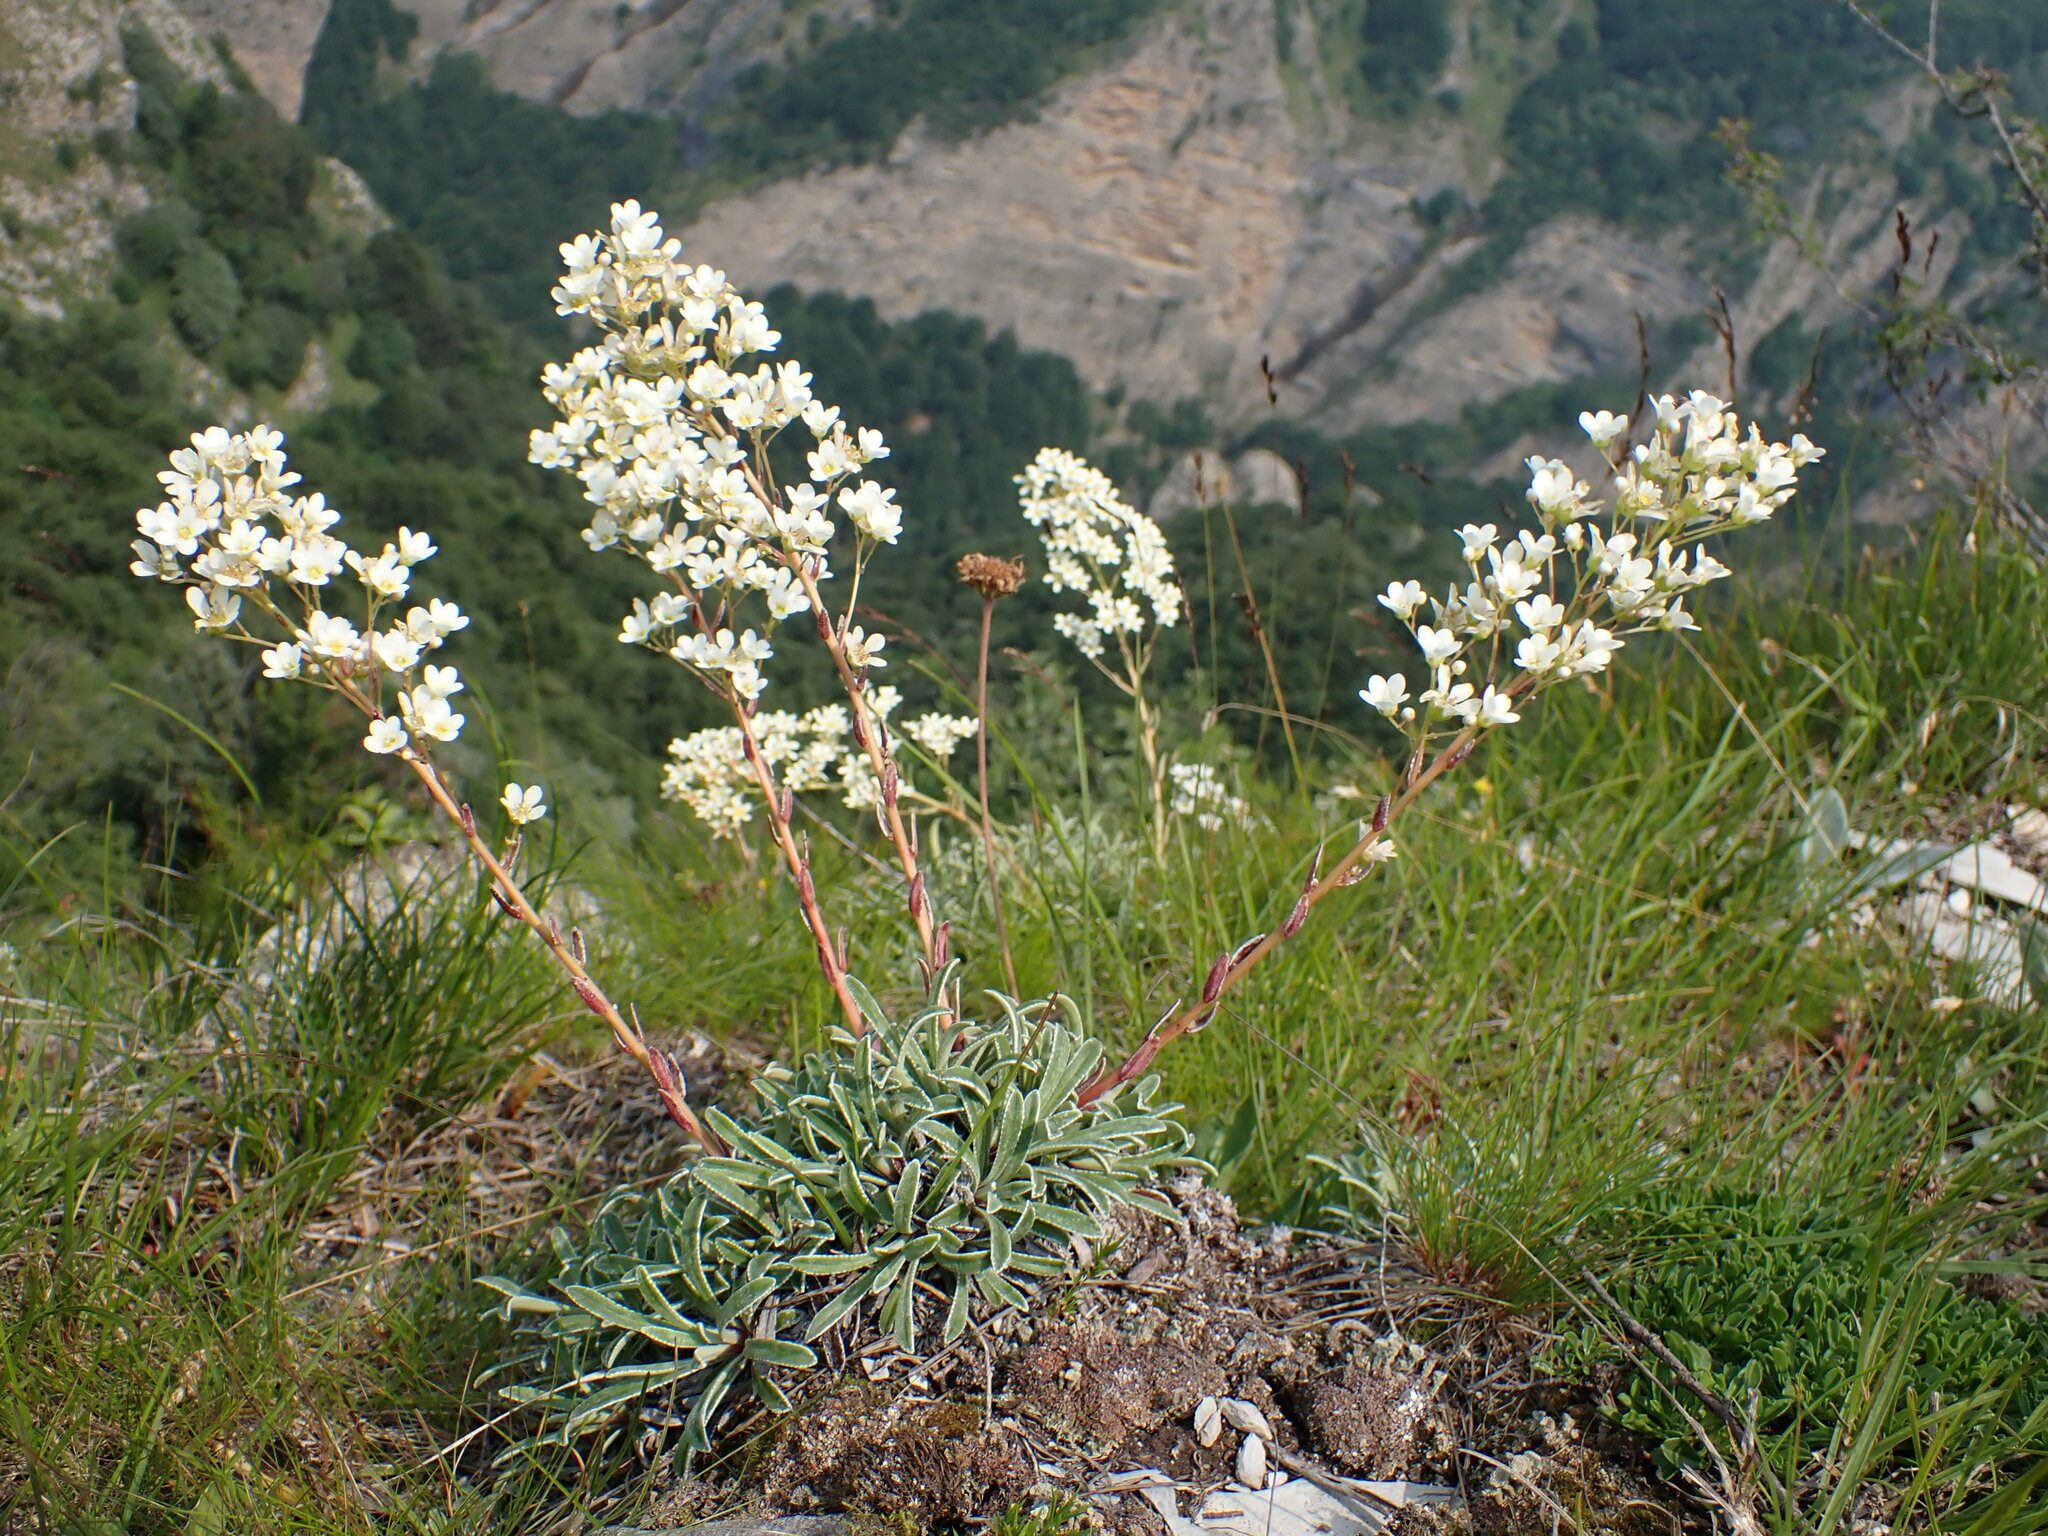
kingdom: Plantae
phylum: Tracheophyta
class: Magnoliopsida
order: Saxifragales
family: Saxifragaceae
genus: Saxifraga
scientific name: Saxifraga callosa
